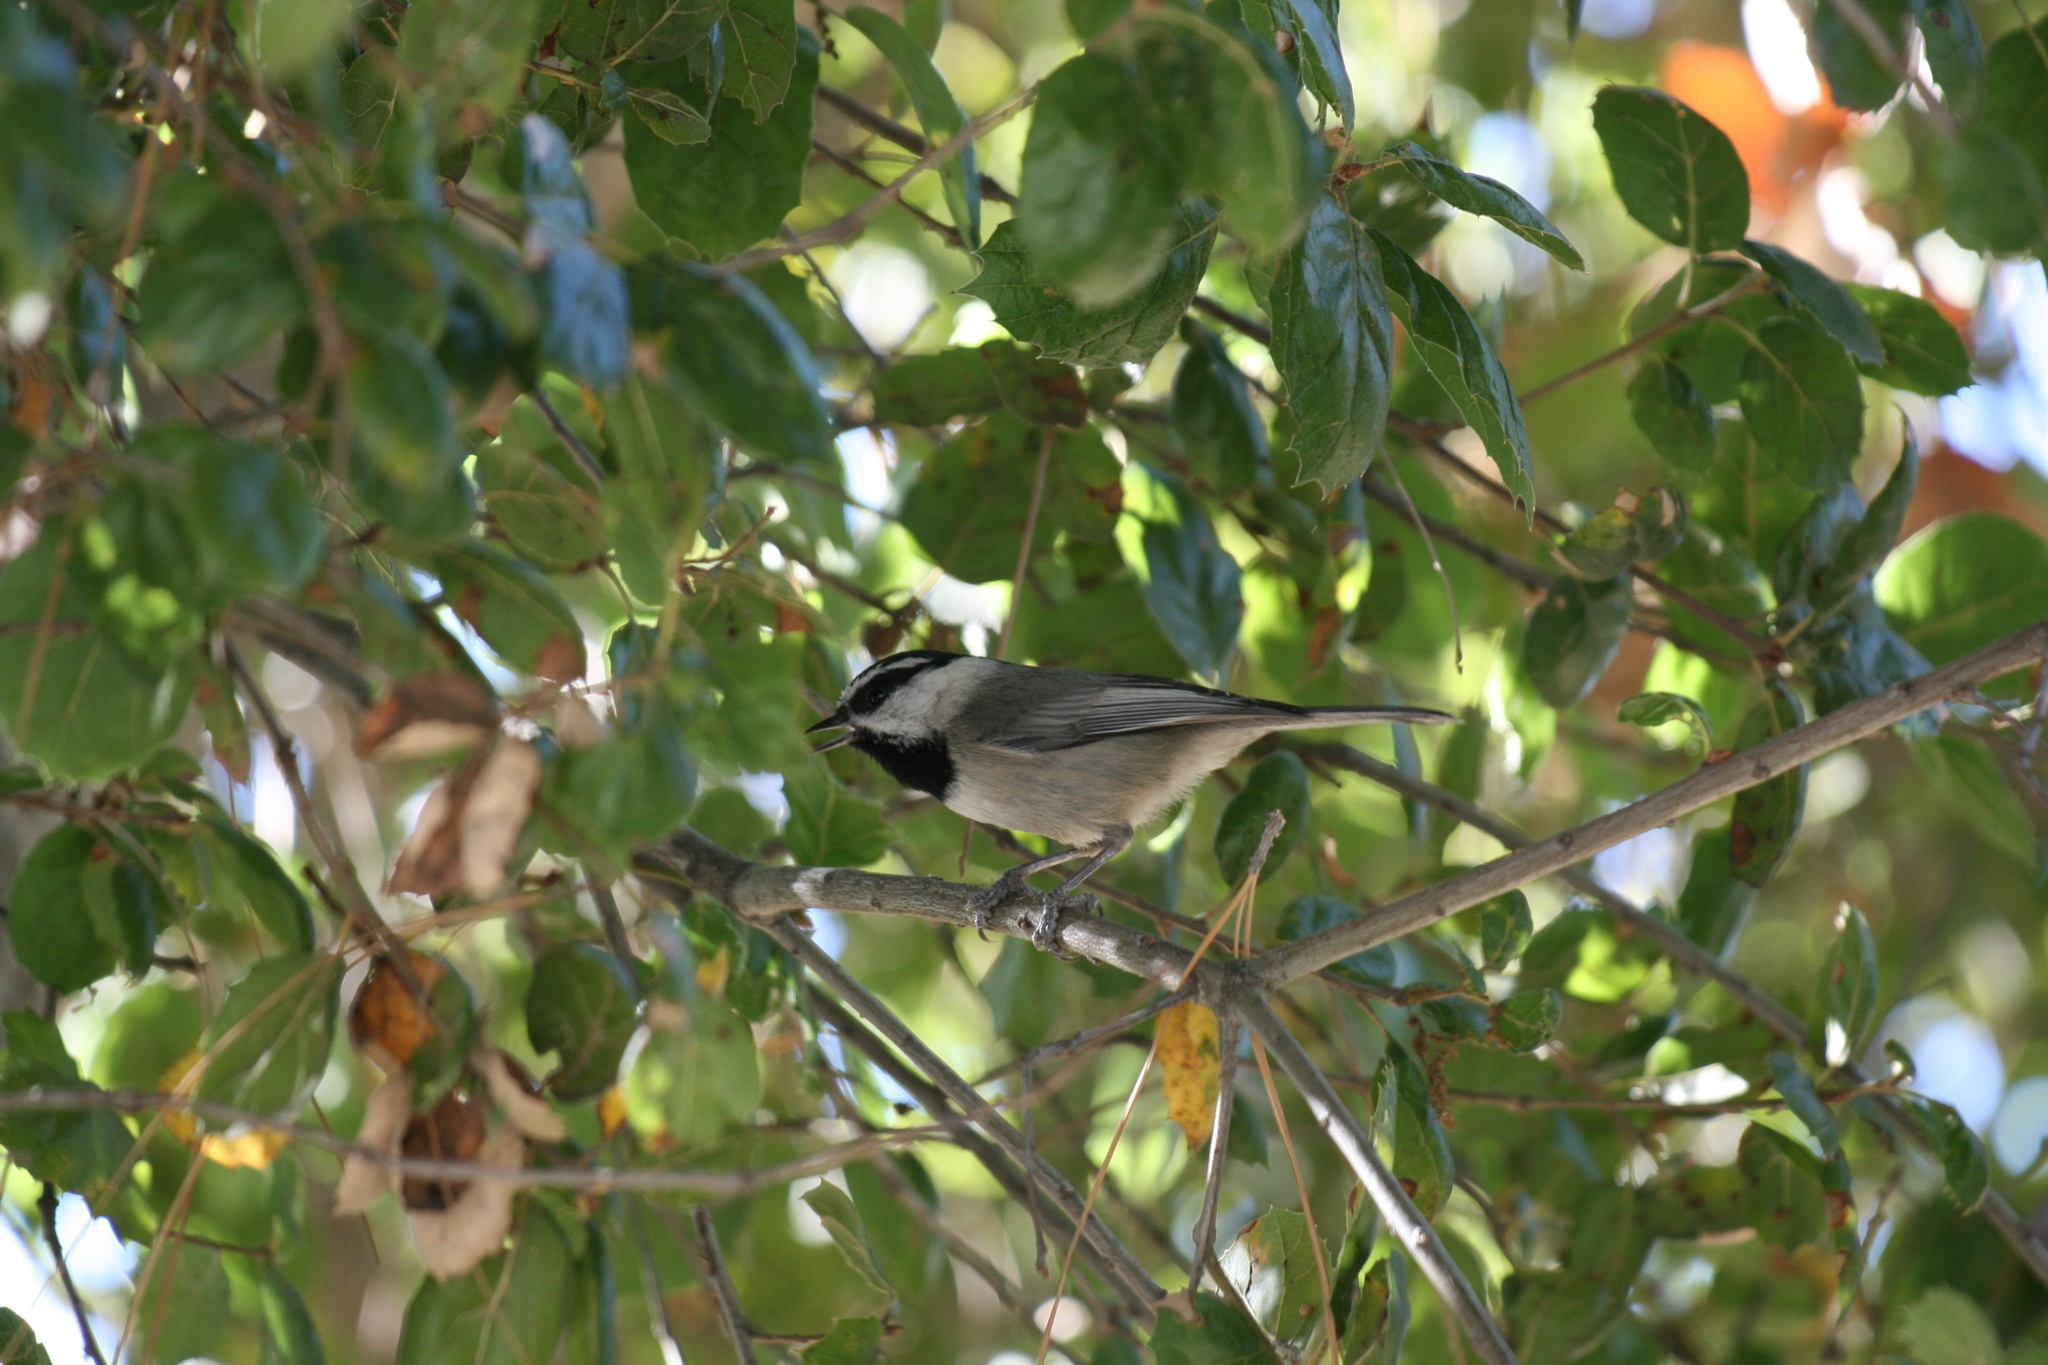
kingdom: Animalia
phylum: Chordata
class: Aves
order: Passeriformes
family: Paridae
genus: Poecile
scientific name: Poecile gambeli
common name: Mountain chickadee
